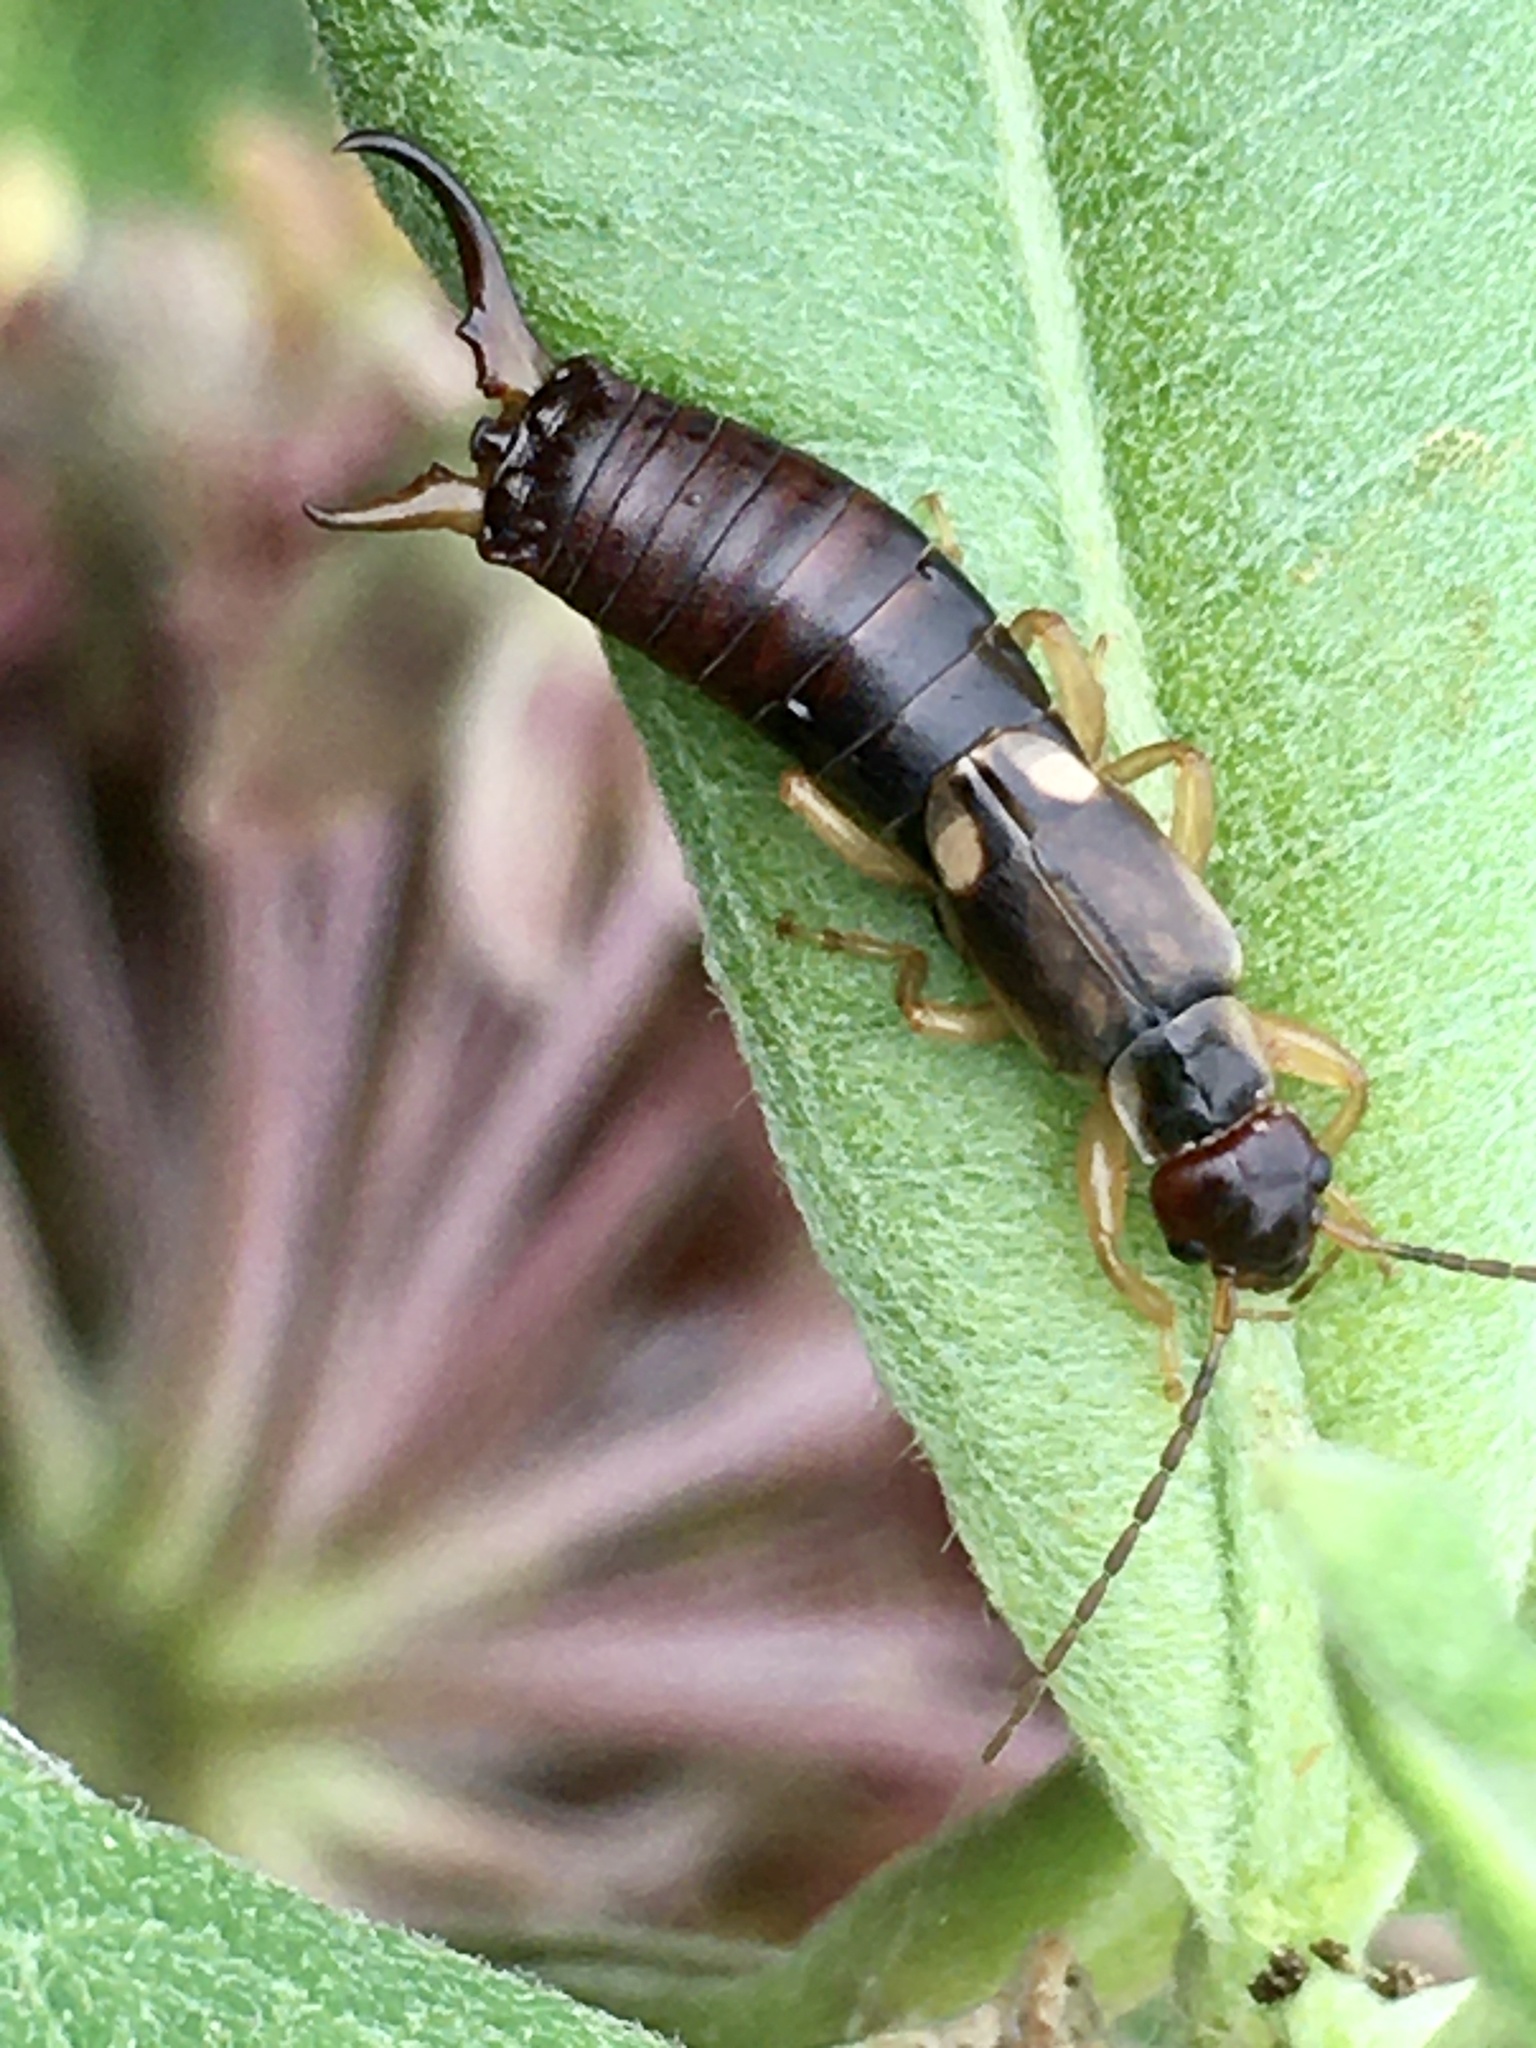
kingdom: Animalia
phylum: Arthropoda
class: Insecta
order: Dermaptera
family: Forficulidae
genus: Forficula
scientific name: Forficula
